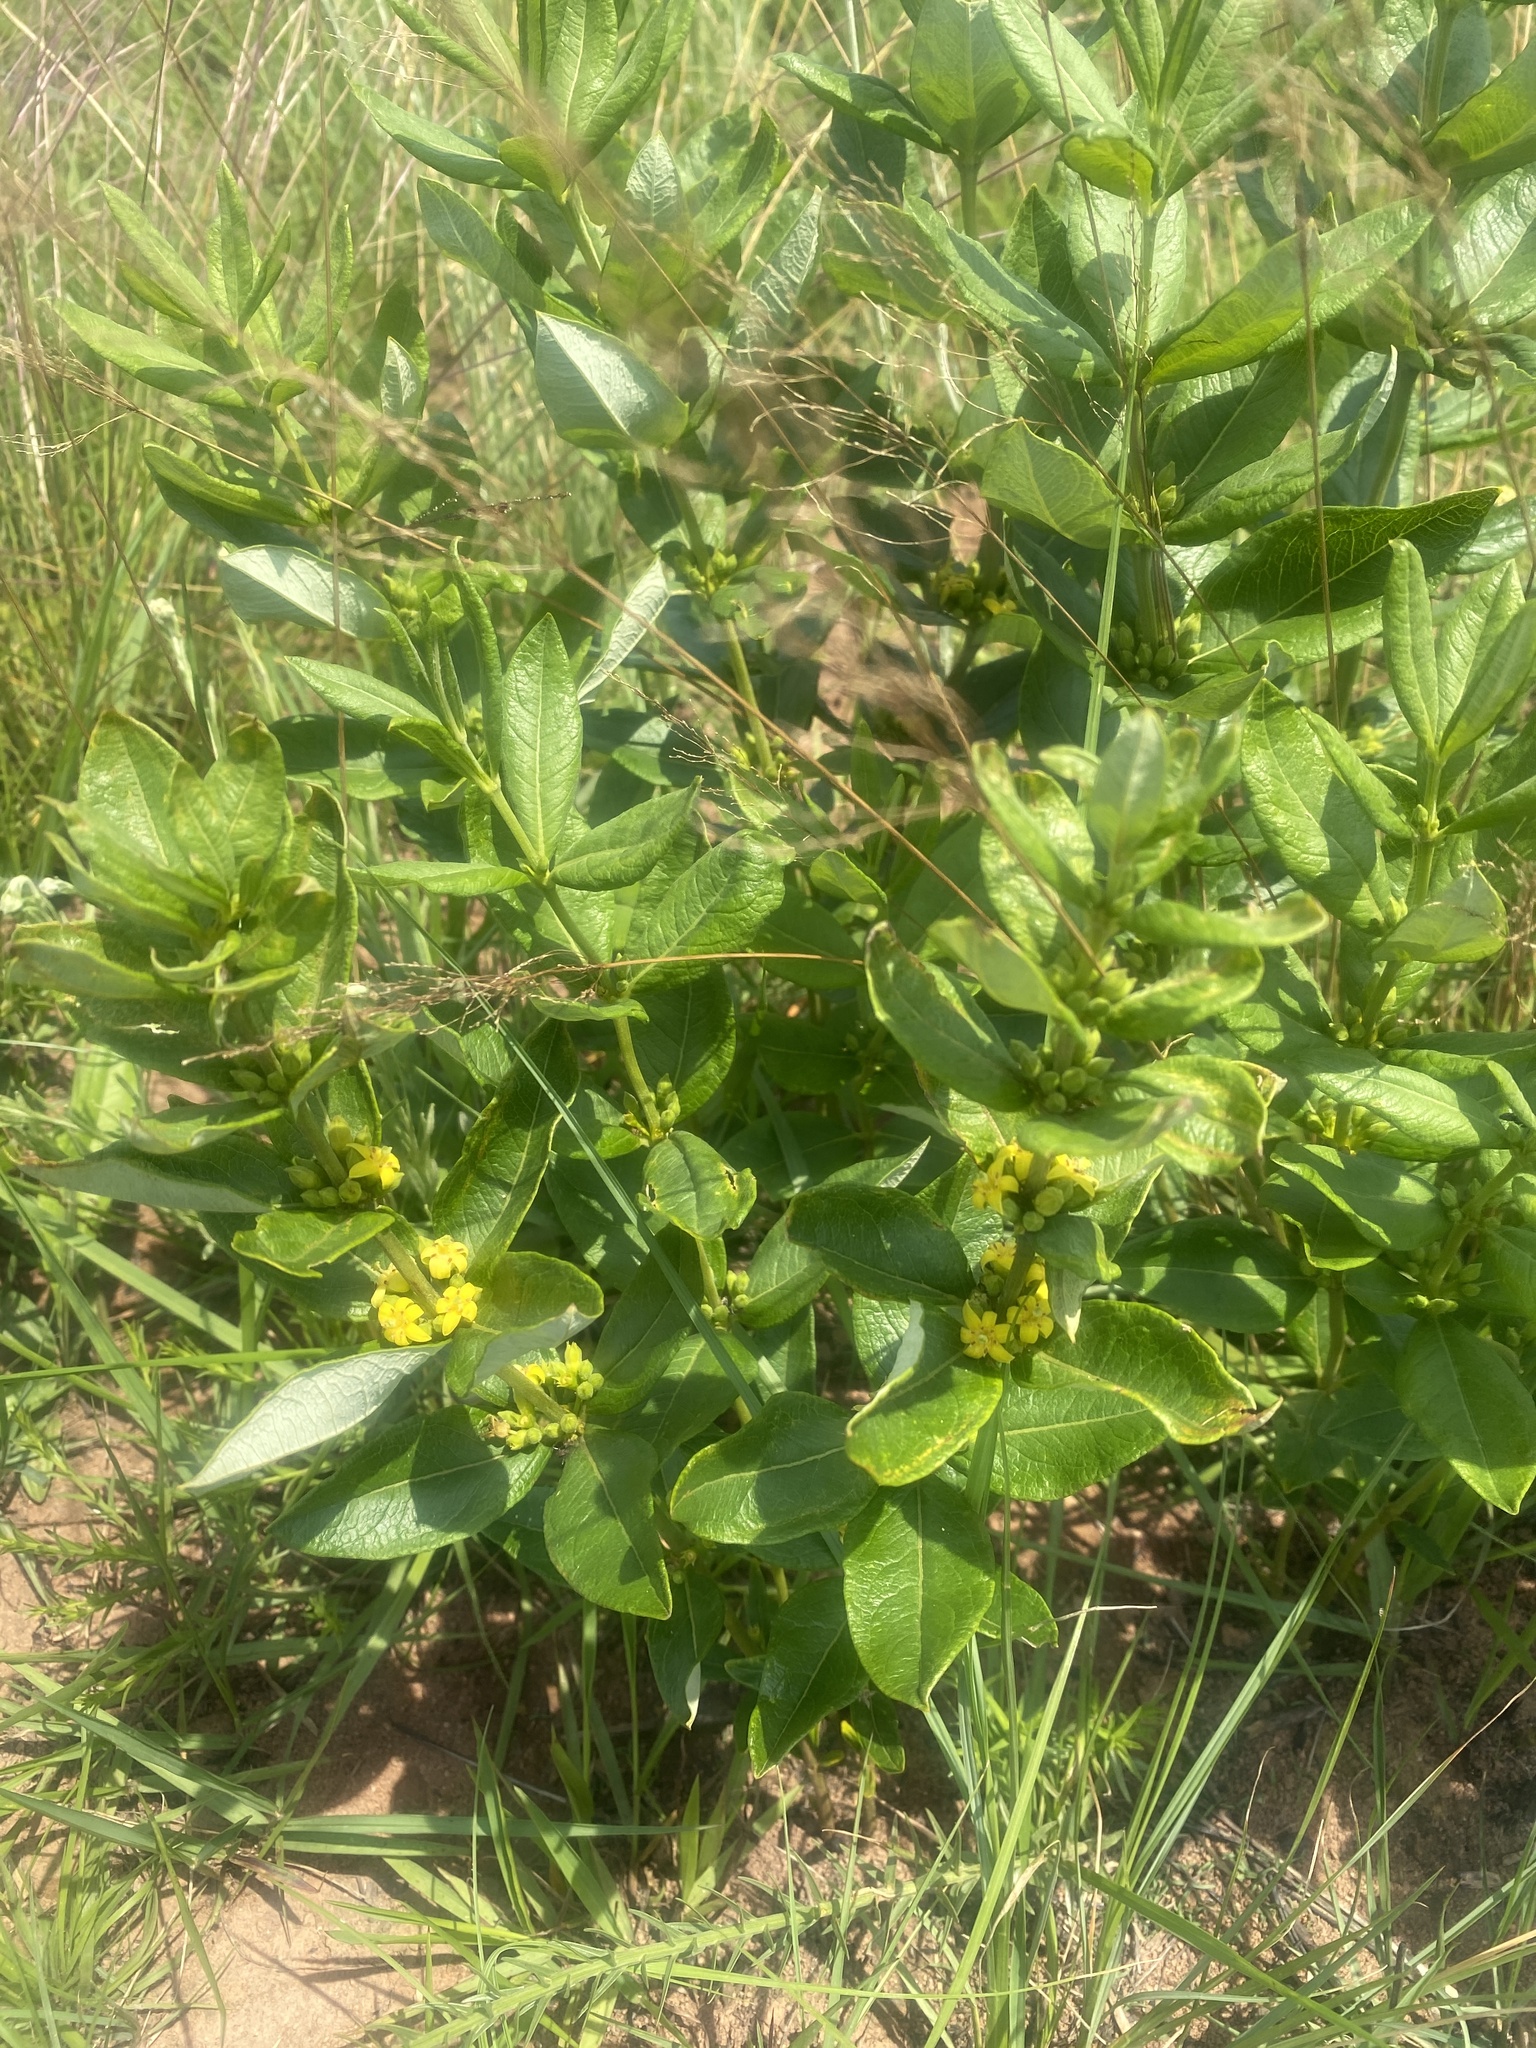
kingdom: Plantae
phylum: Tracheophyta
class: Magnoliopsida
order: Gentianales
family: Rubiaceae
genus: Fadogia
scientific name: Fadogia homblei
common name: Wild date
